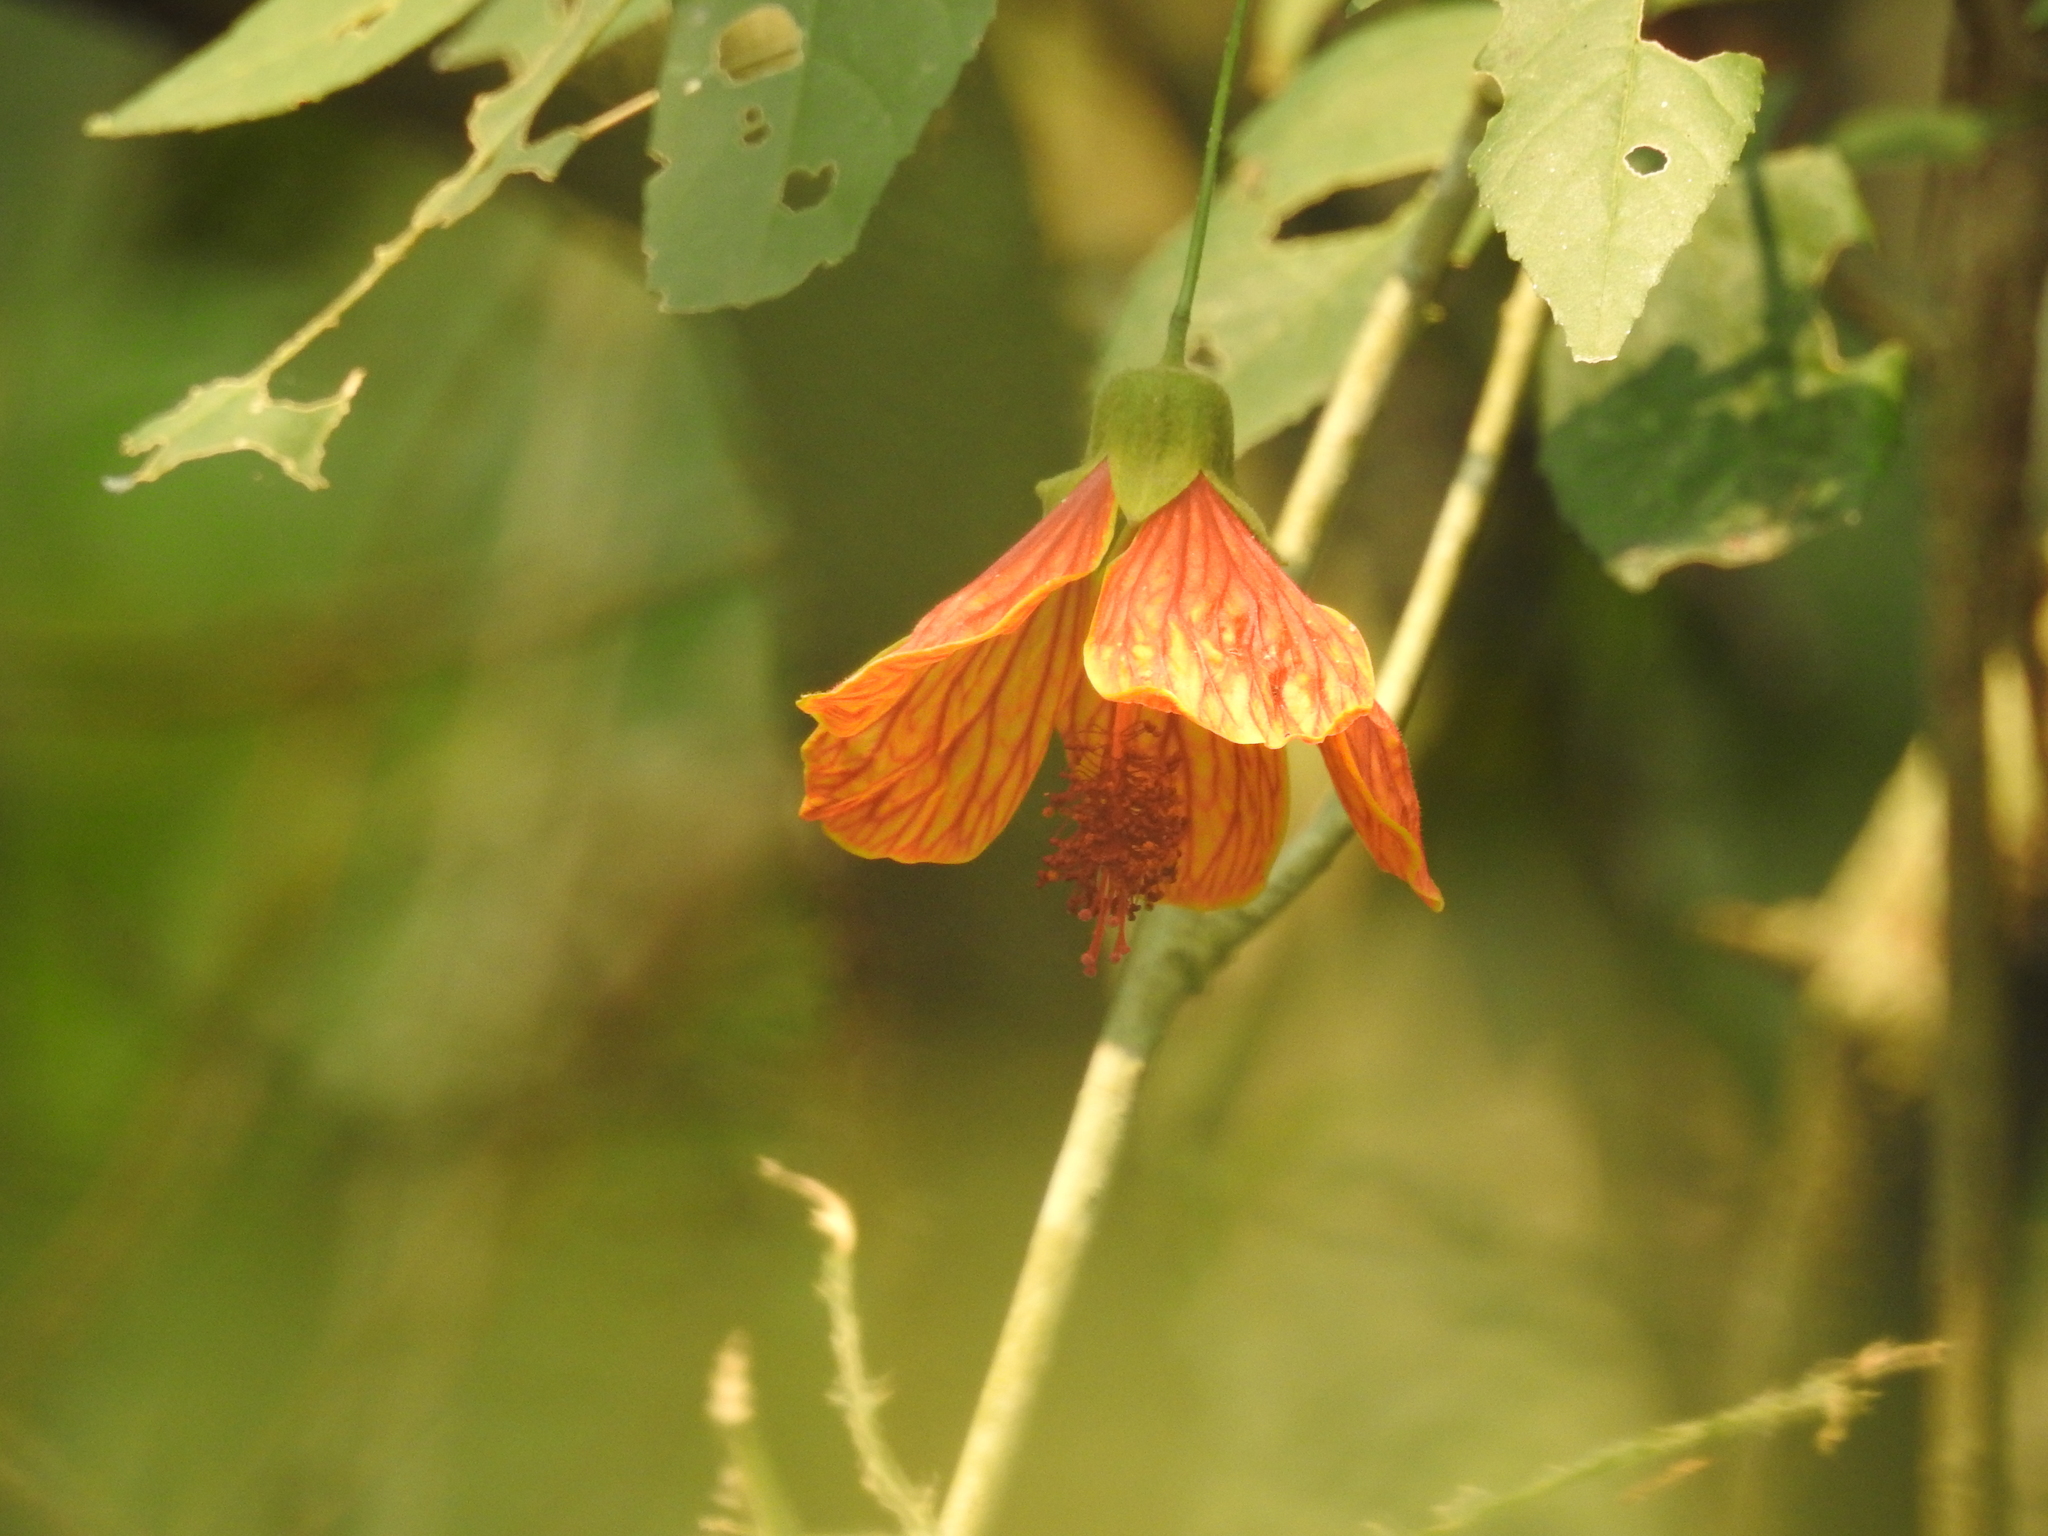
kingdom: Plantae
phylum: Tracheophyta
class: Magnoliopsida
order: Malvales
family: Malvaceae
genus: Callianthe
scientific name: Callianthe picta
